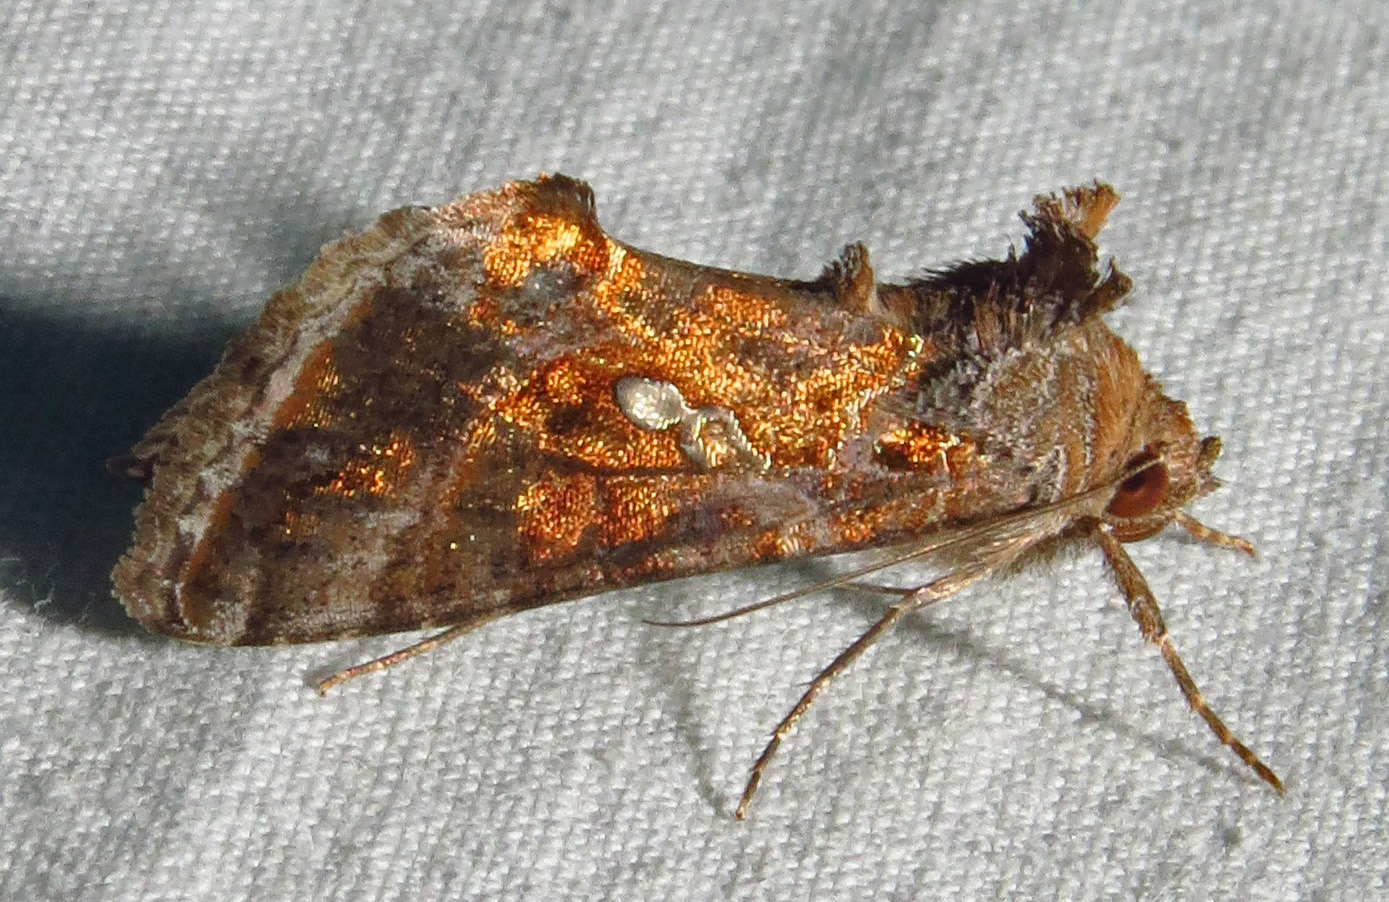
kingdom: Animalia
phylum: Arthropoda
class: Insecta
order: Lepidoptera
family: Noctuidae
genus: Chrysodeixis
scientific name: Chrysodeixis includens
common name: Cutworm moth
